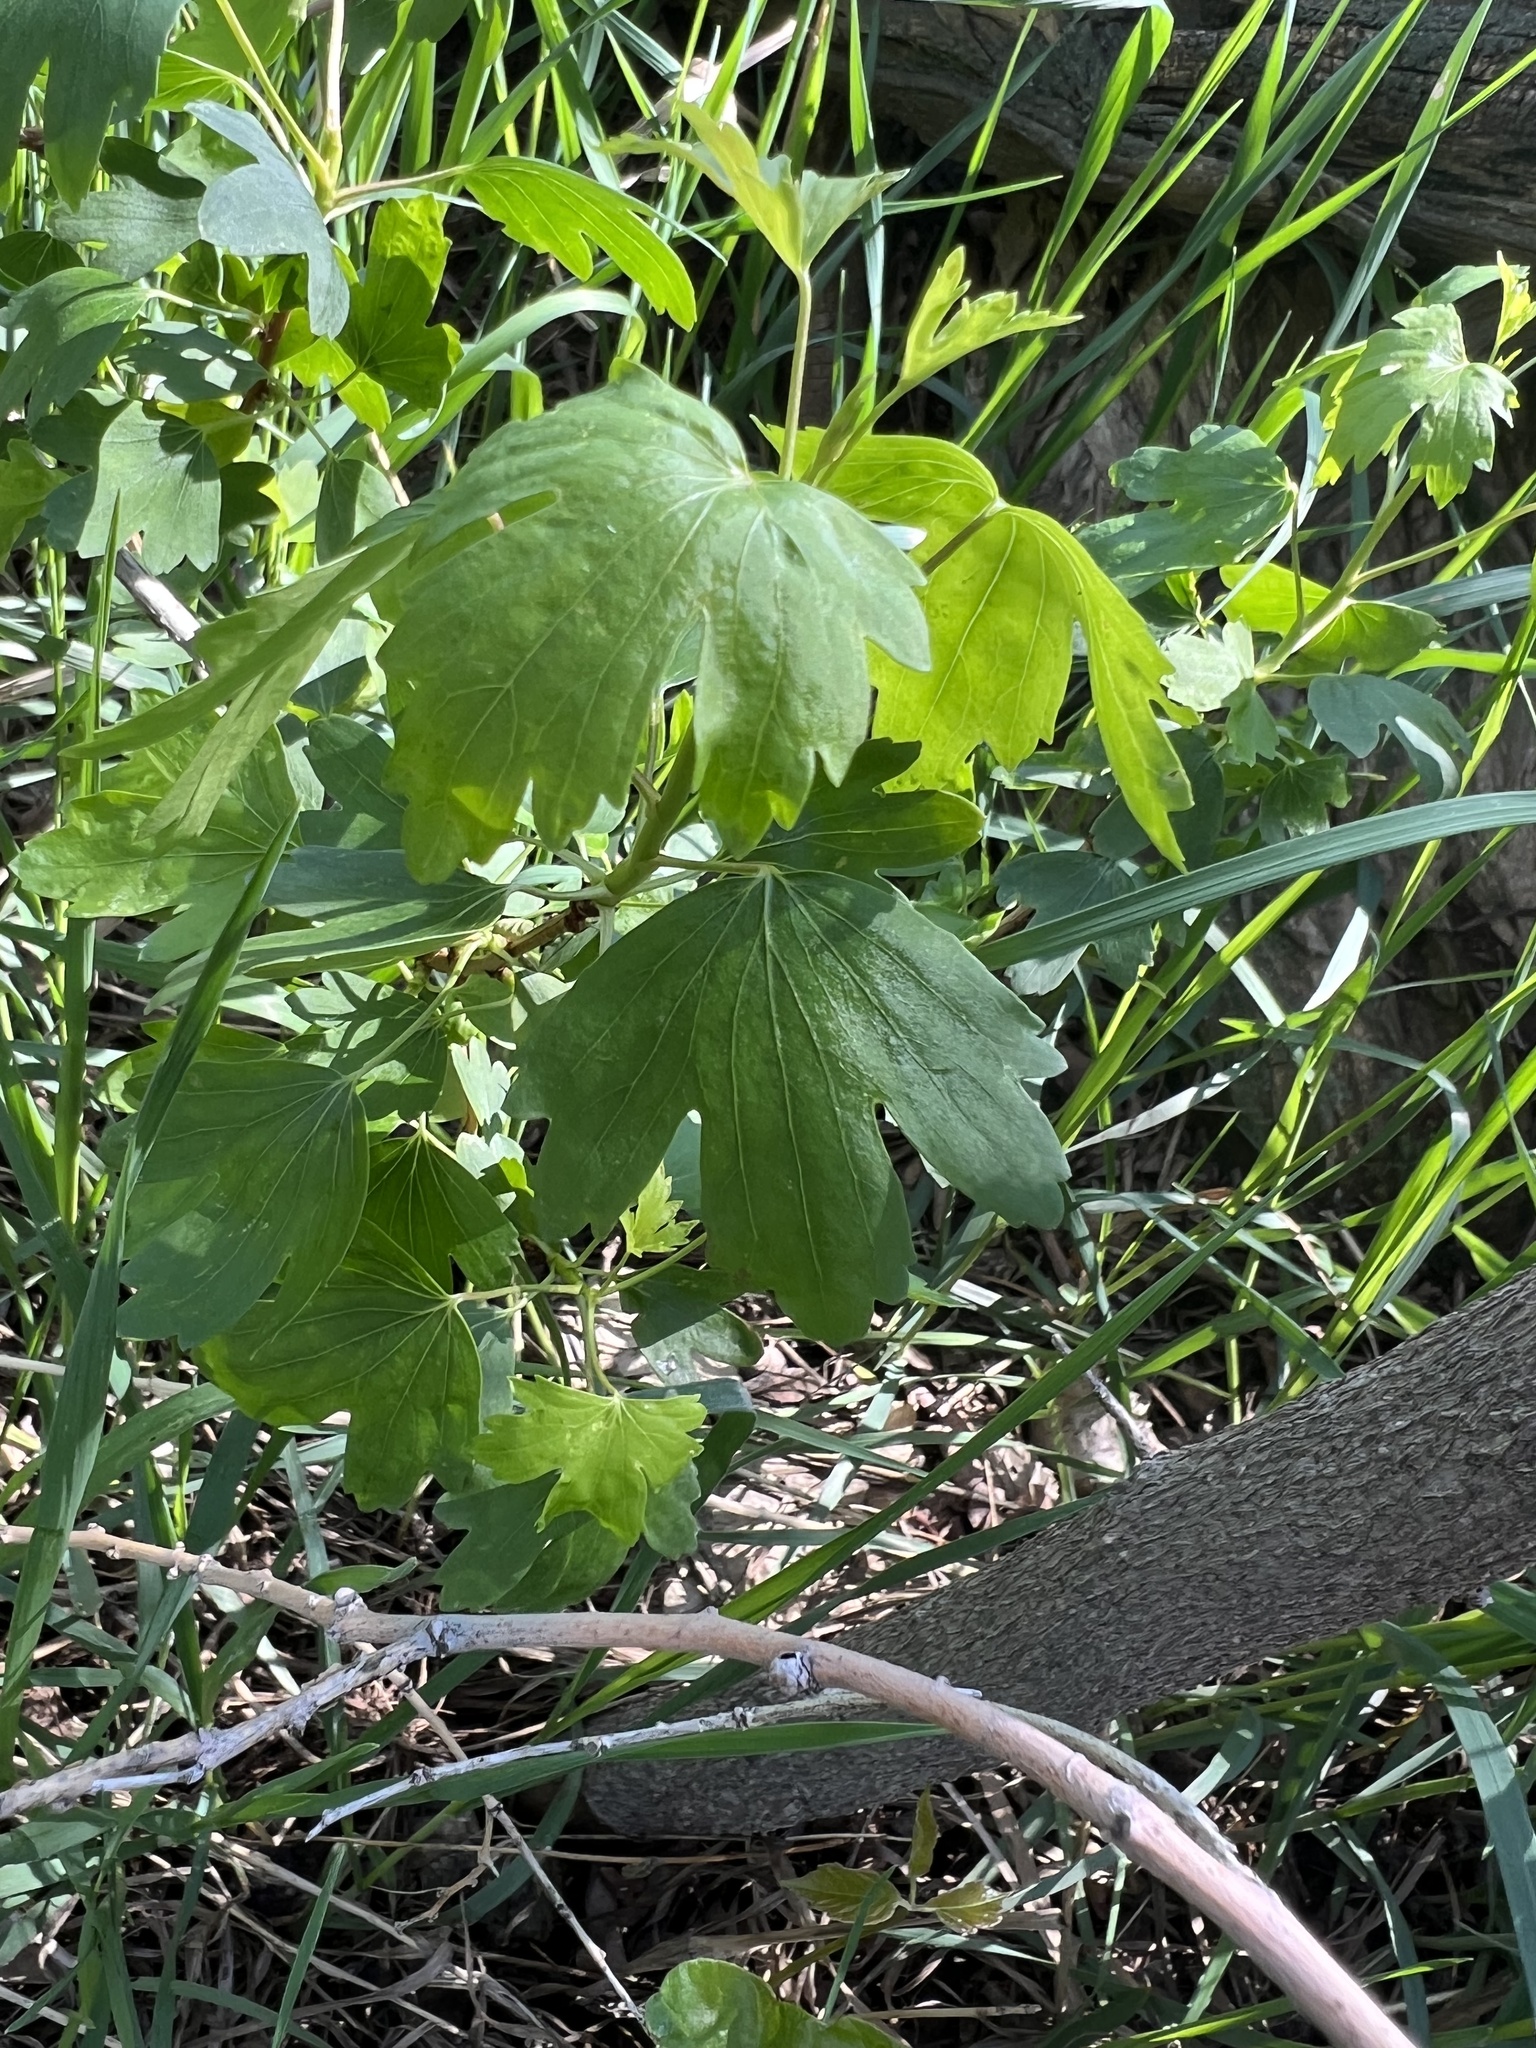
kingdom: Plantae
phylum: Tracheophyta
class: Magnoliopsida
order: Saxifragales
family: Grossulariaceae
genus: Ribes
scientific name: Ribes aureum
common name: Golden currant
